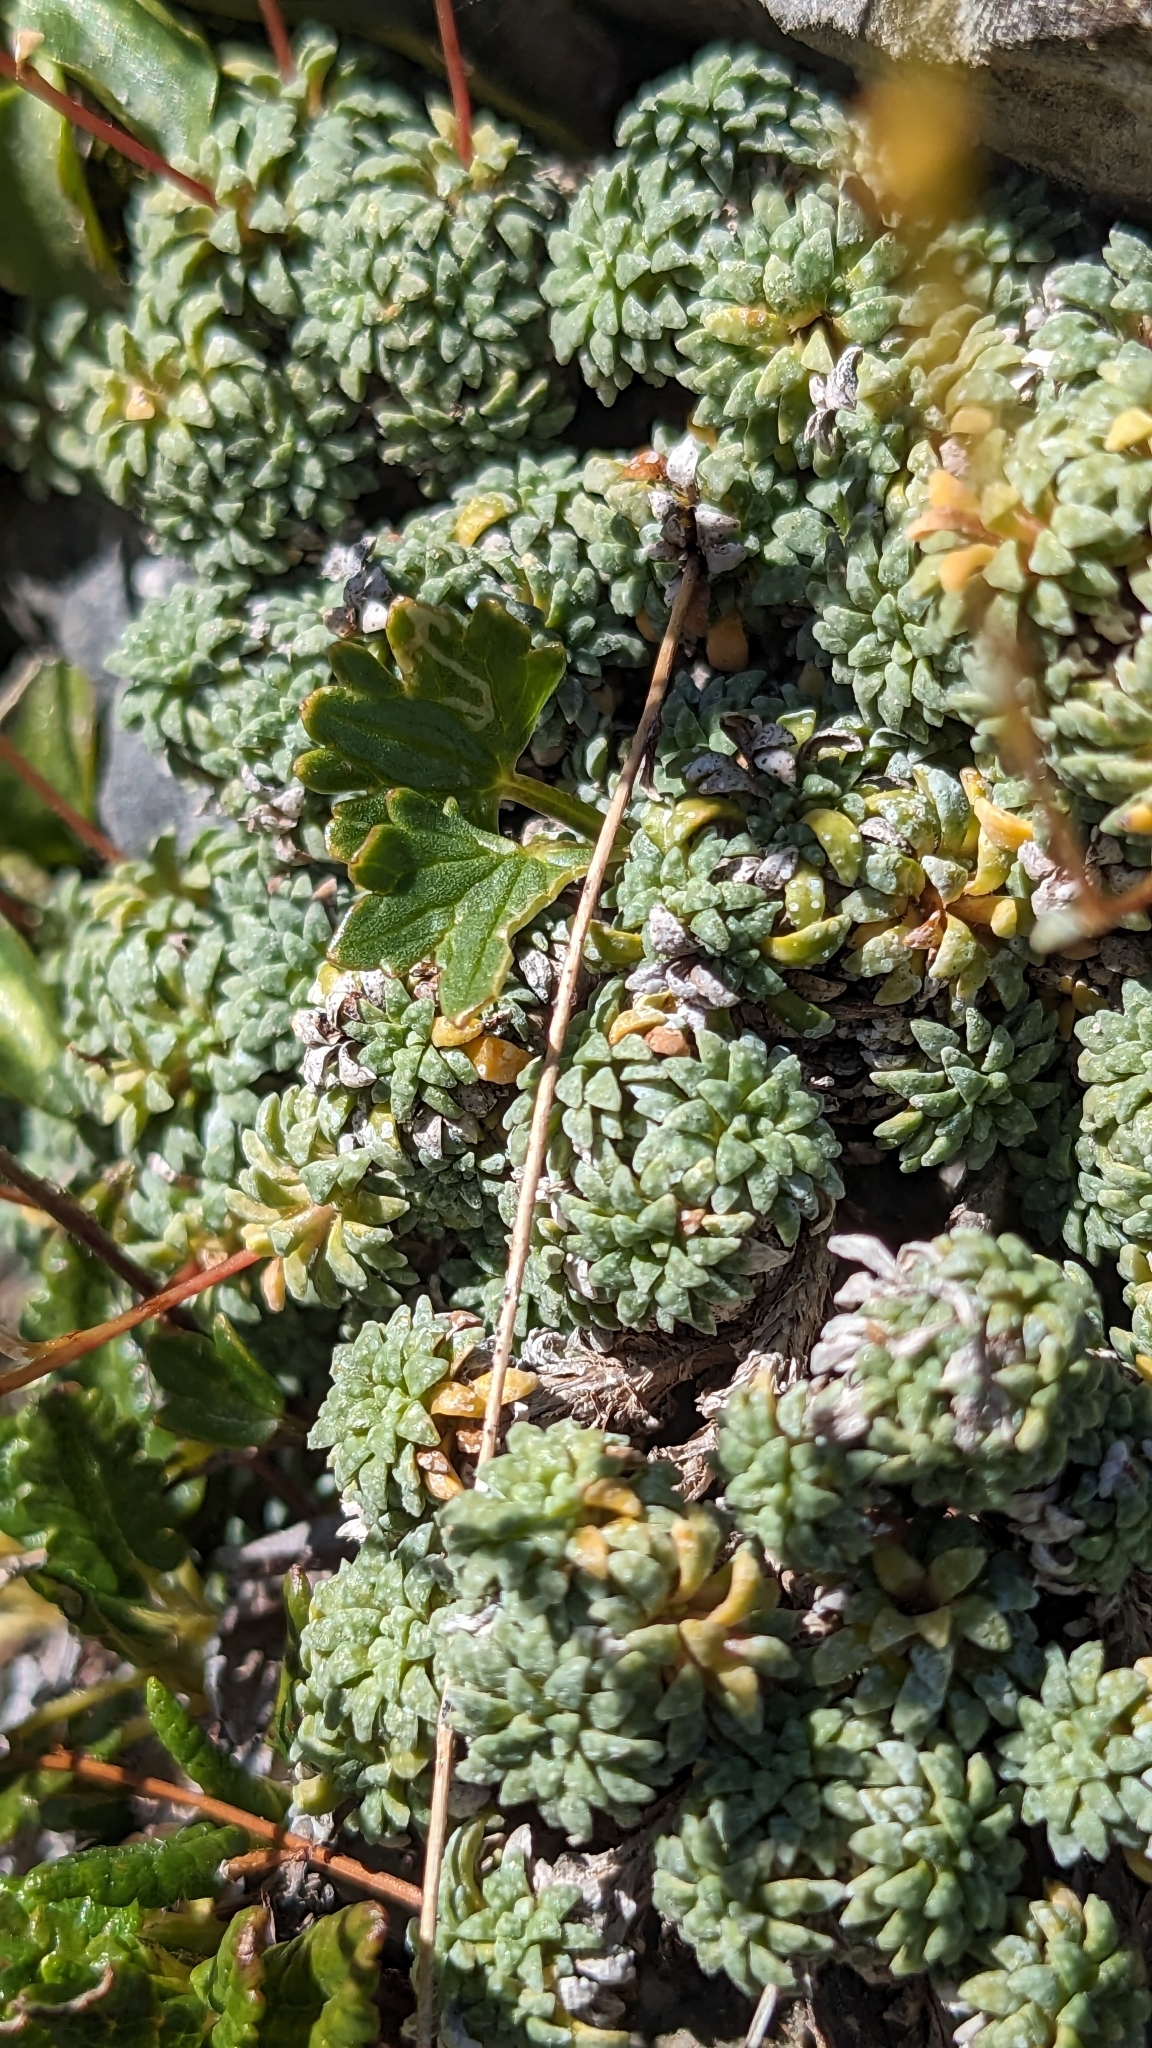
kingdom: Plantae
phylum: Tracheophyta
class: Magnoliopsida
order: Saxifragales
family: Saxifragaceae
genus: Saxifraga
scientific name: Saxifraga caesia
